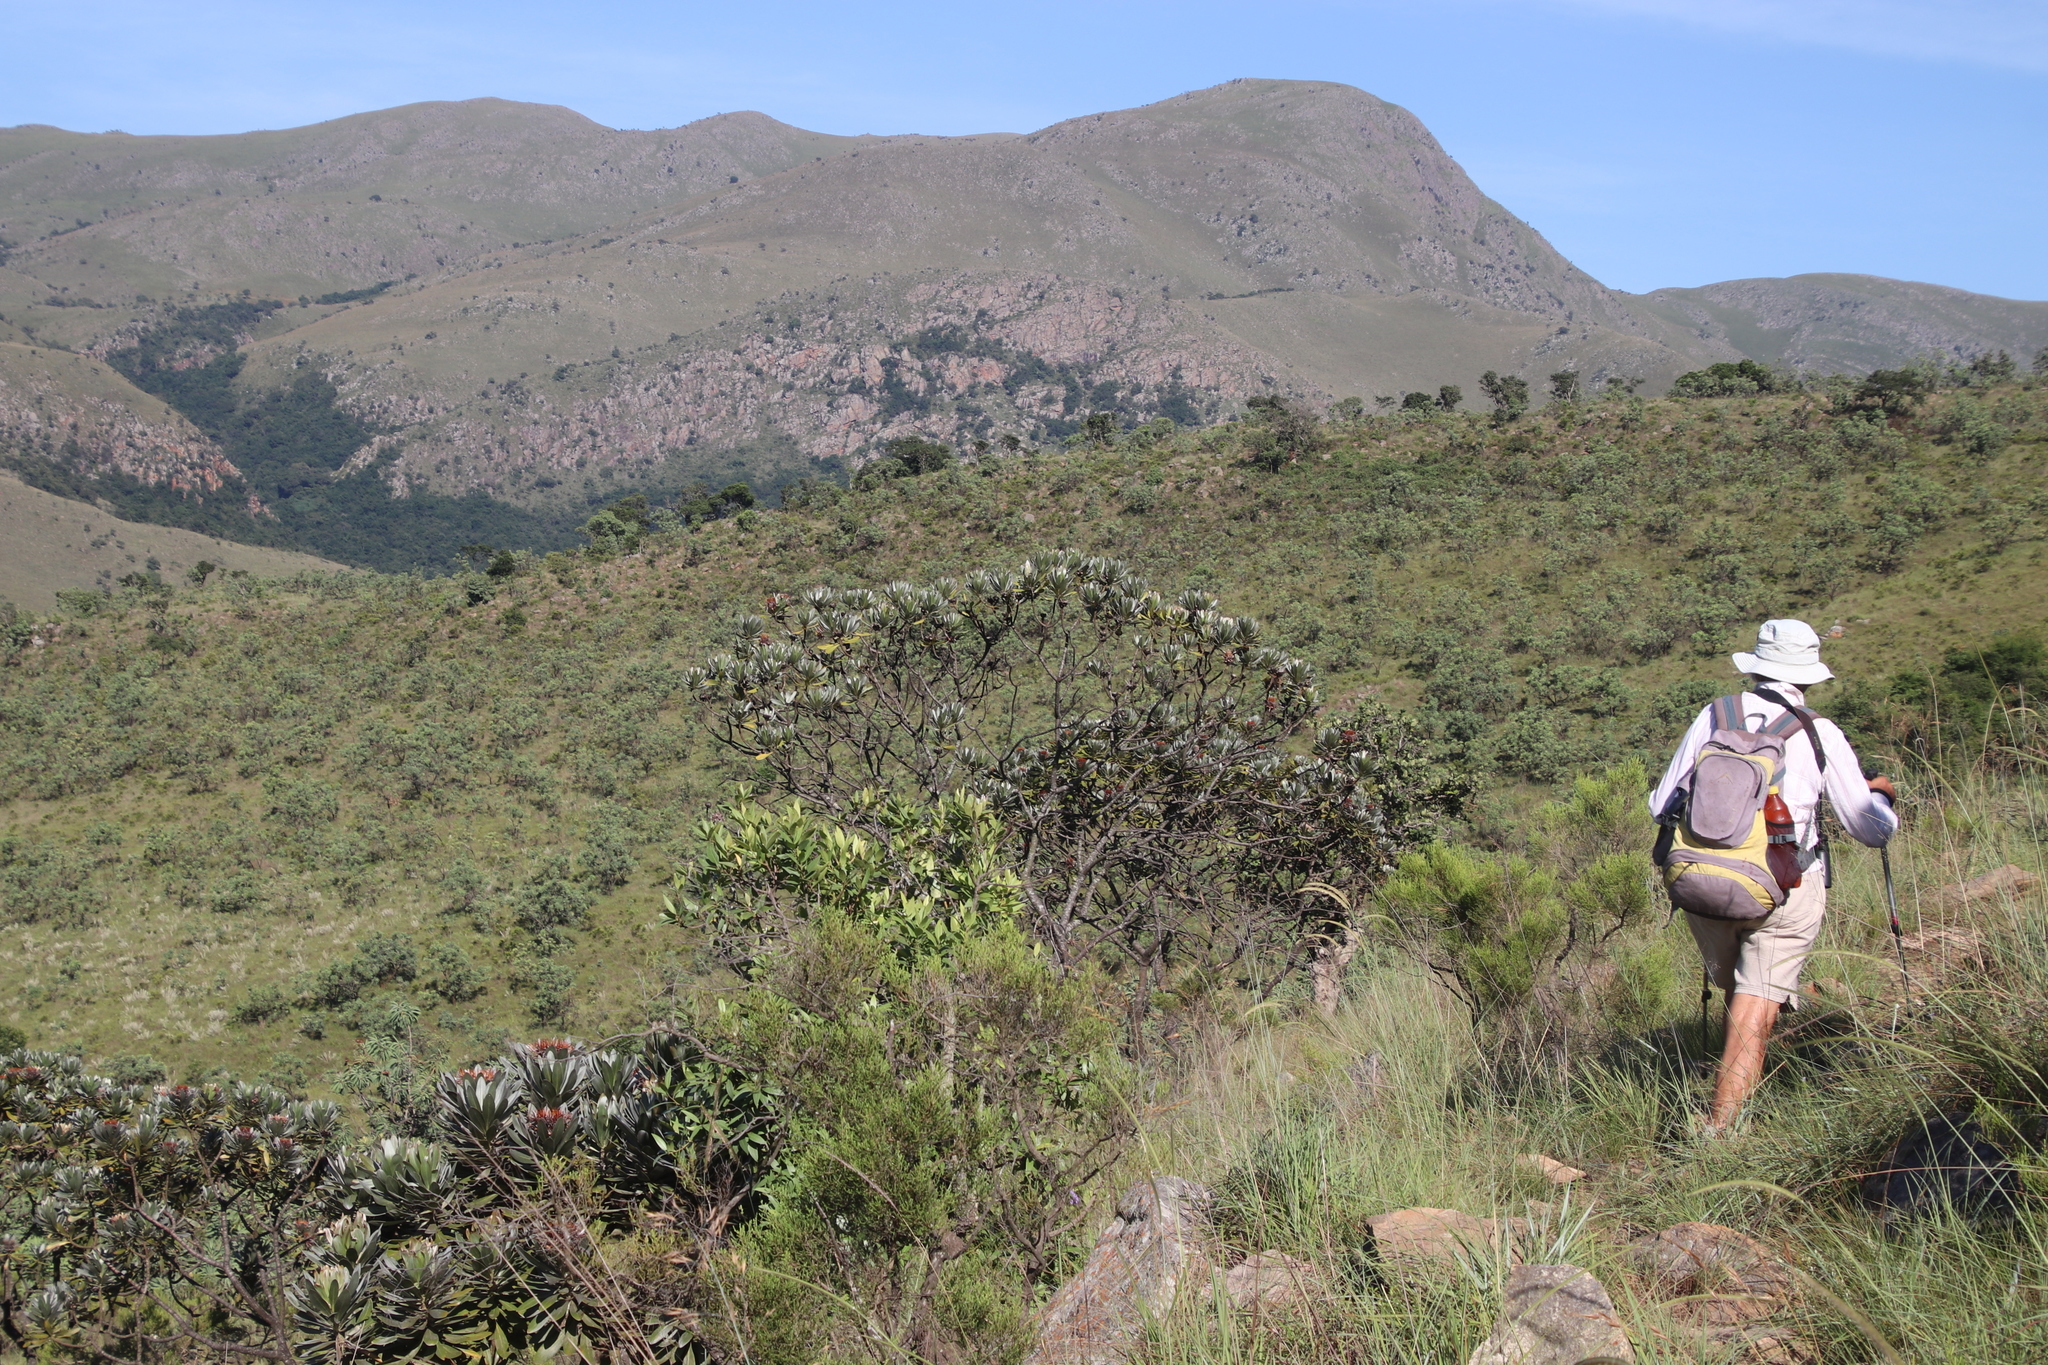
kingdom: Plantae
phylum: Tracheophyta
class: Magnoliopsida
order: Proteales
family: Proteaceae
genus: Protea
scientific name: Protea roupelliae
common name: Silver sugarbush
